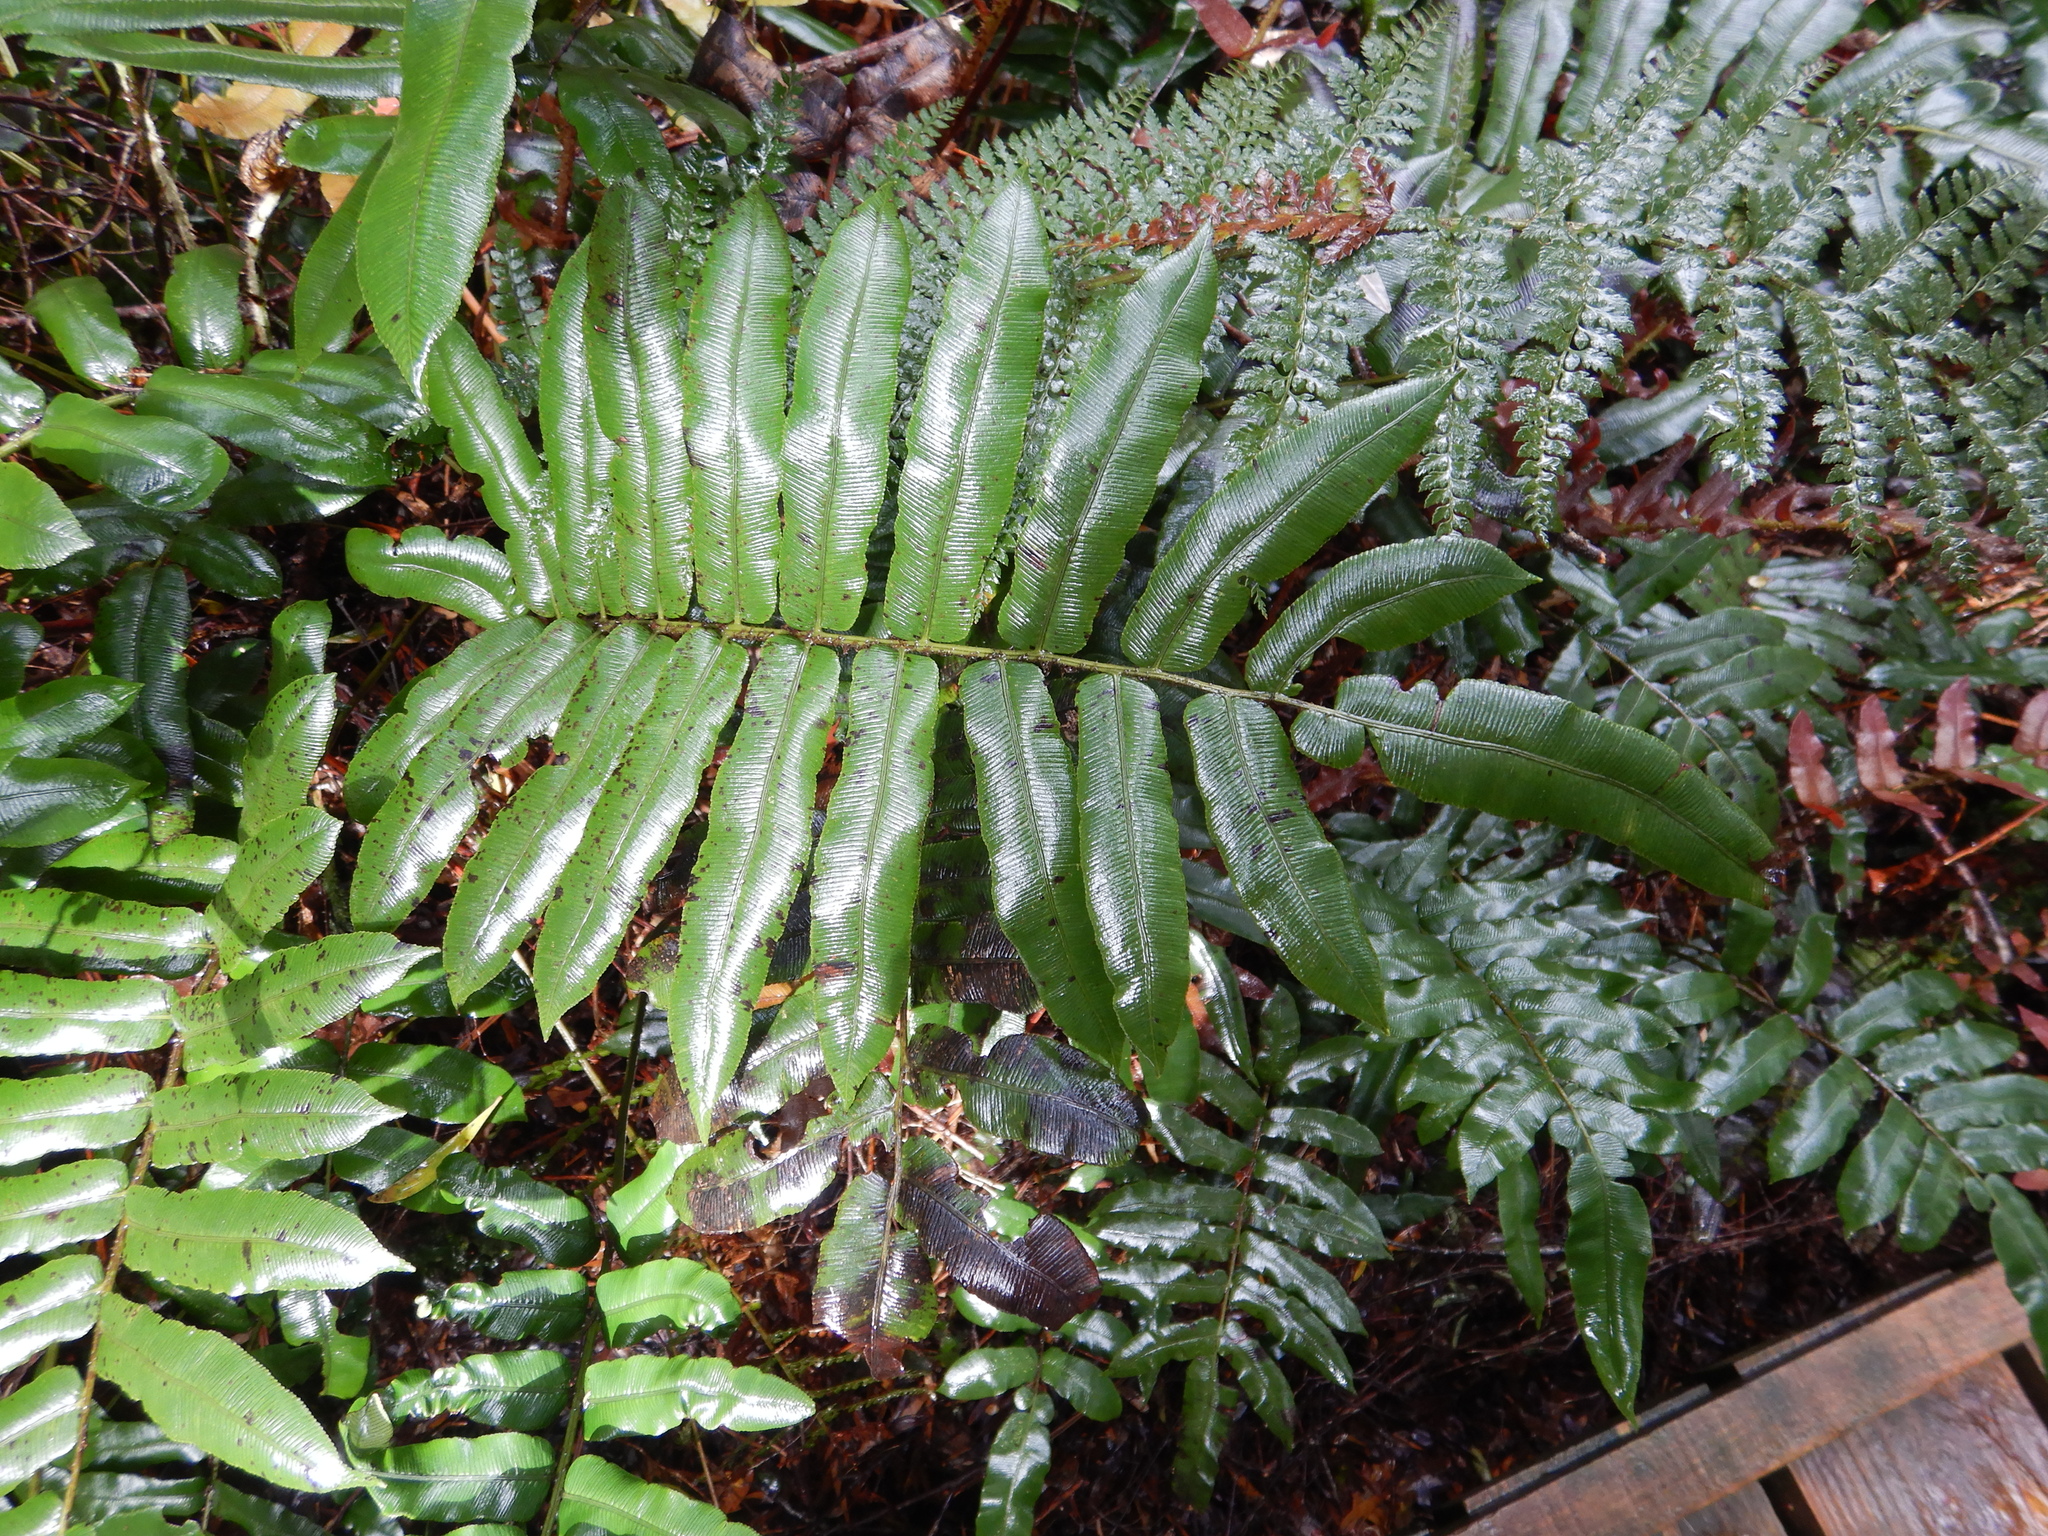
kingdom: Plantae
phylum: Tracheophyta
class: Polypodiopsida
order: Polypodiales
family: Blechnaceae
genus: Parablechnum
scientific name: Parablechnum wattsii
